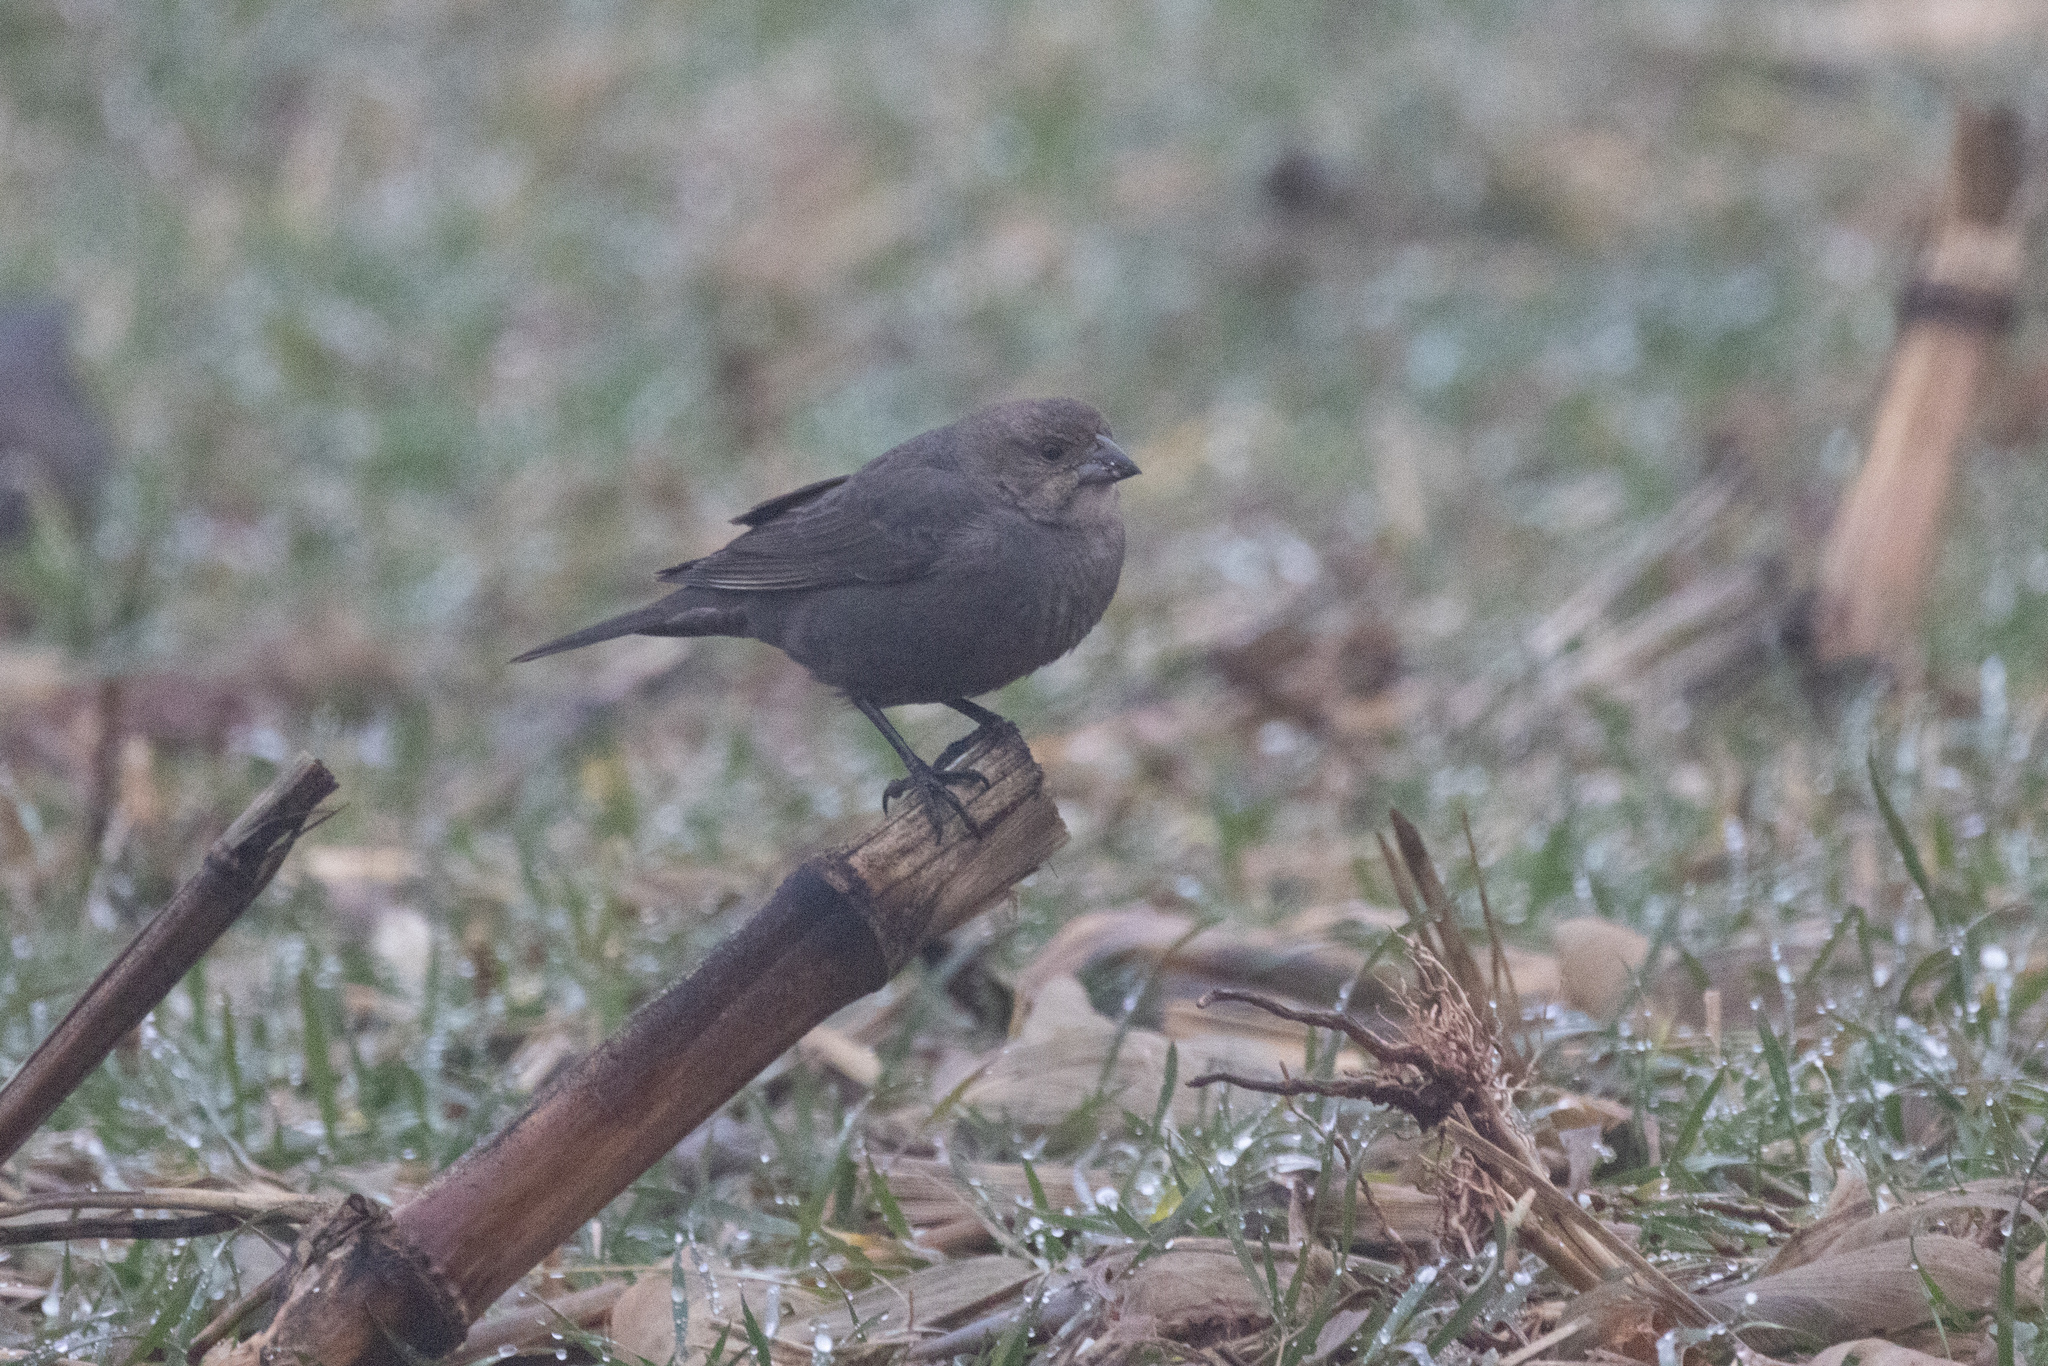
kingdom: Animalia
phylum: Chordata
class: Aves
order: Passeriformes
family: Icteridae
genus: Molothrus
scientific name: Molothrus ater
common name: Brown-headed cowbird
